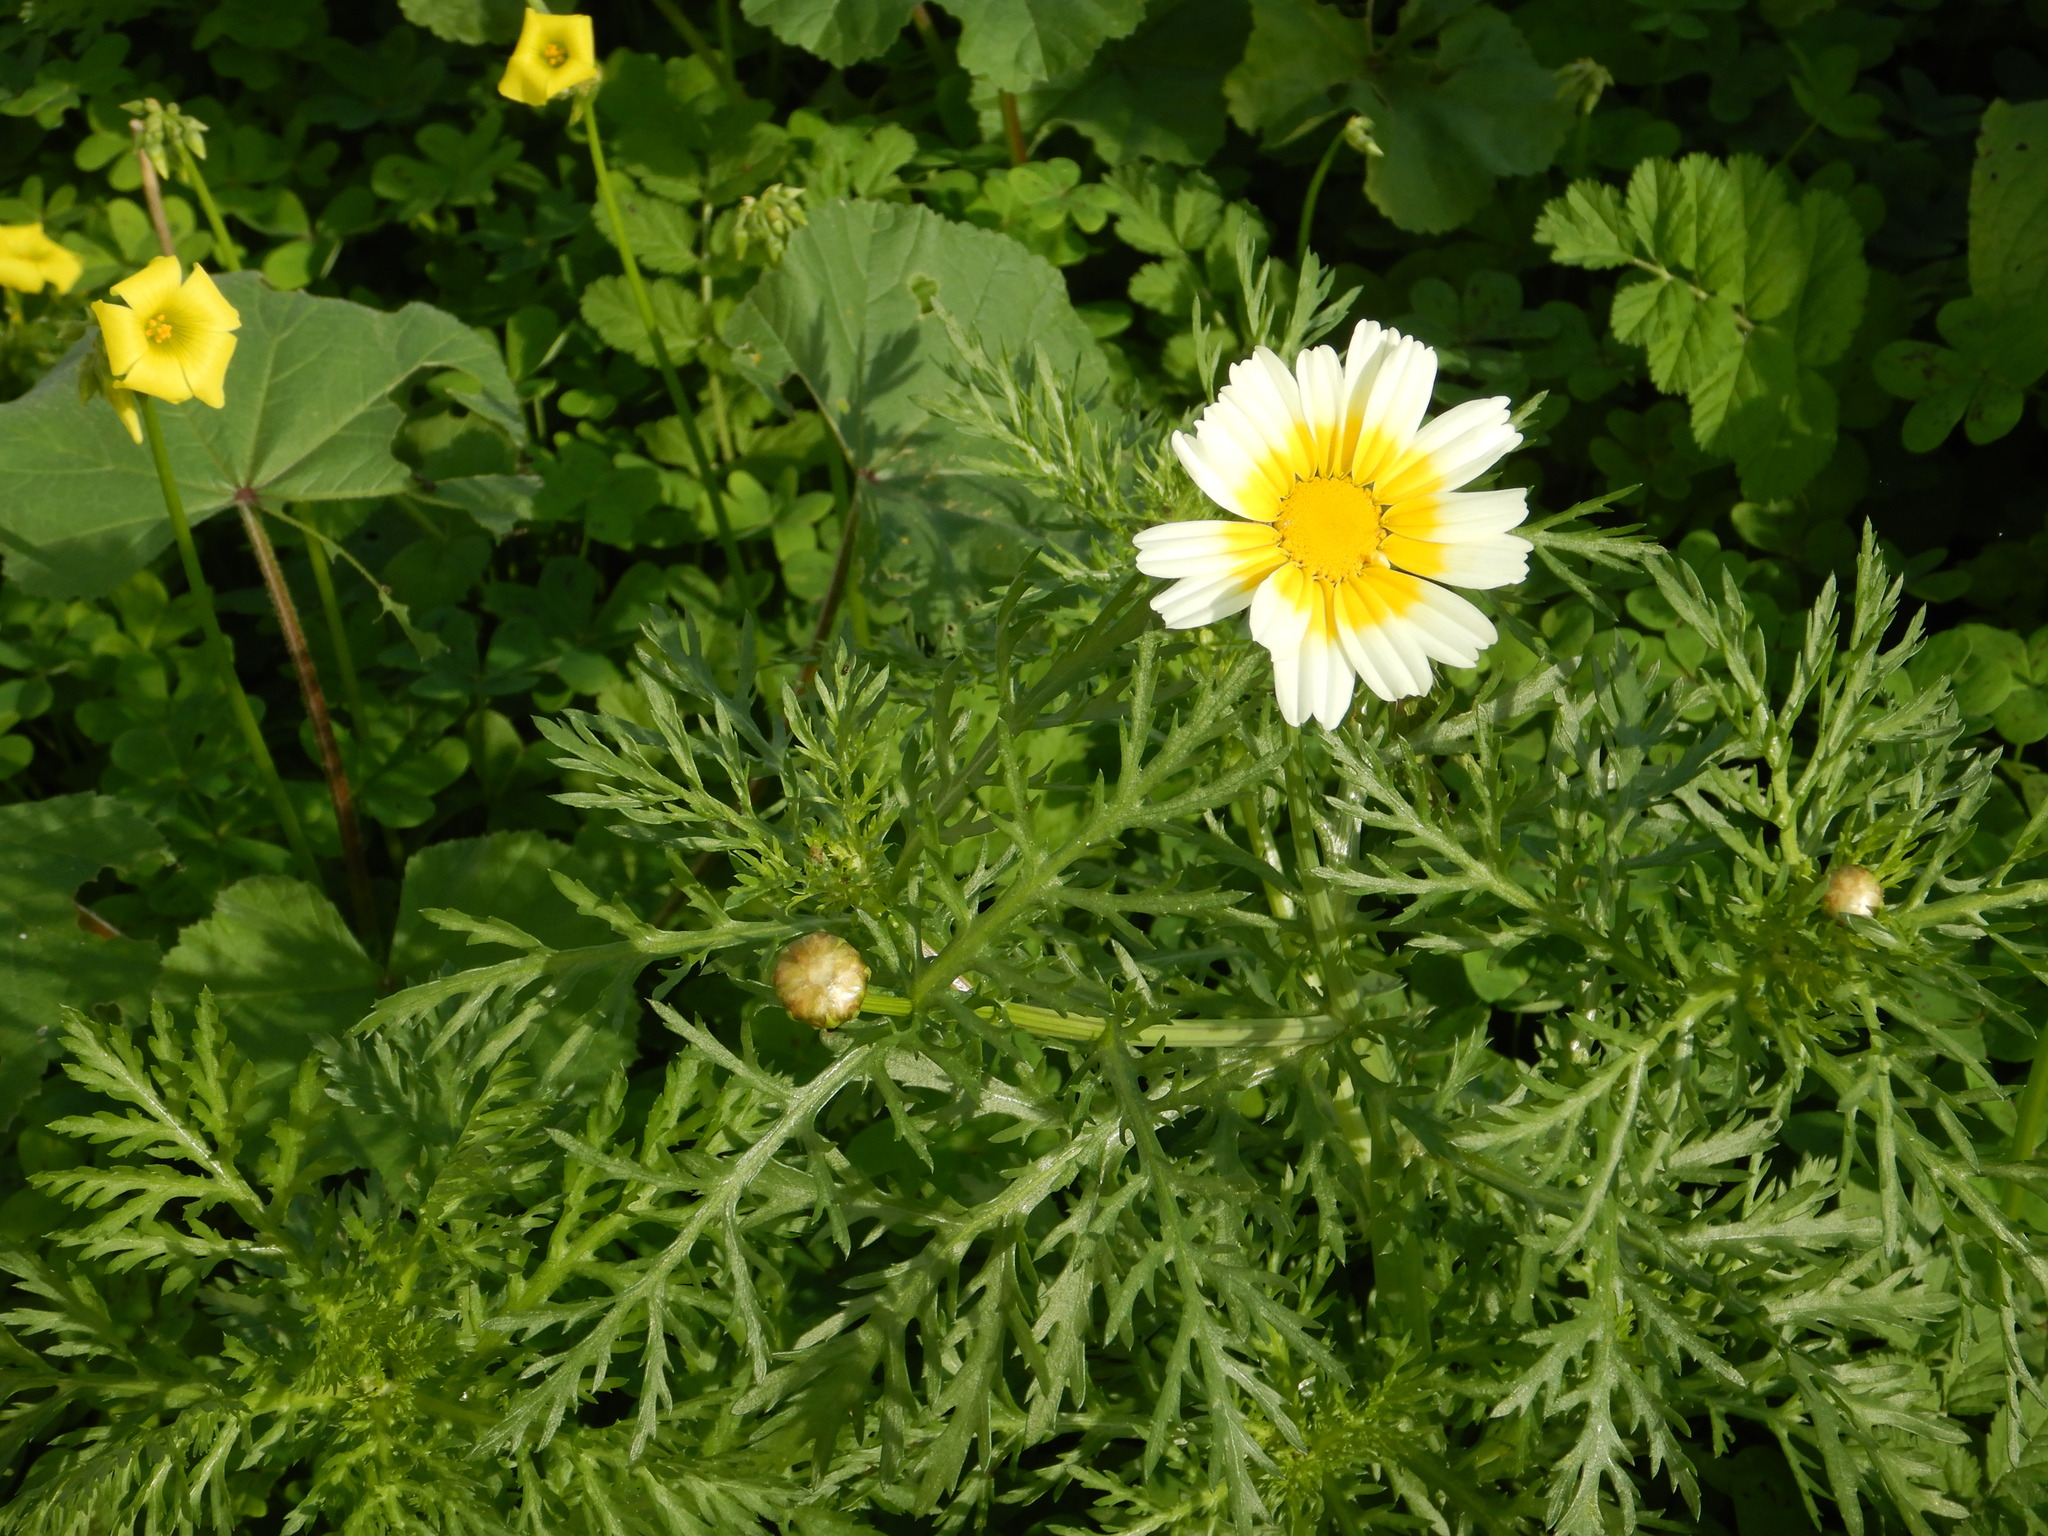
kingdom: Plantae
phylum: Tracheophyta
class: Magnoliopsida
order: Asterales
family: Asteraceae
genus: Glebionis
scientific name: Glebionis coronaria
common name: Crowndaisy
